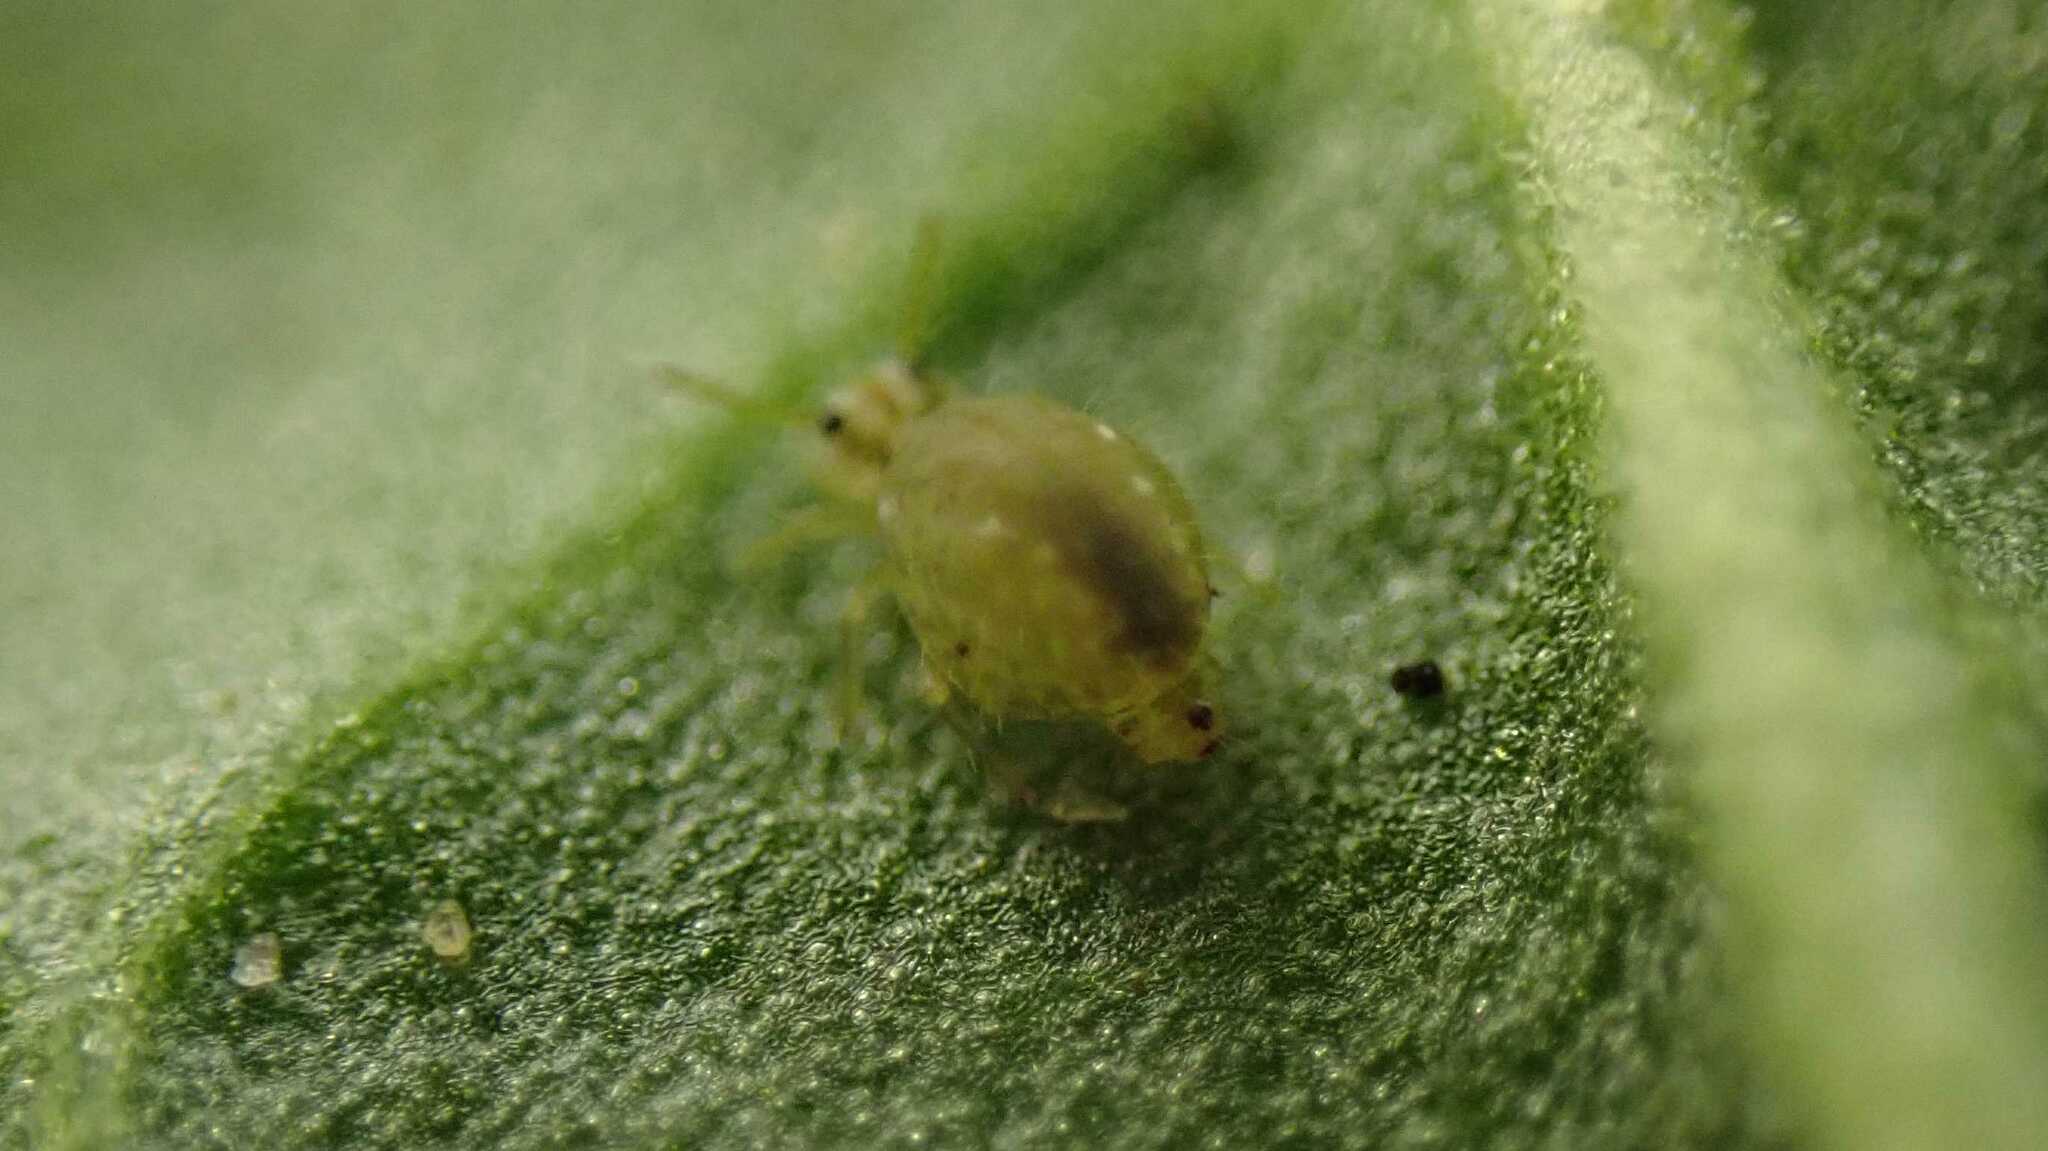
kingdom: Animalia
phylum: Arthropoda
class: Collembola
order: Symphypleona
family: Sminthuridae
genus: Sminthurus
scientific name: Sminthurus viridis
